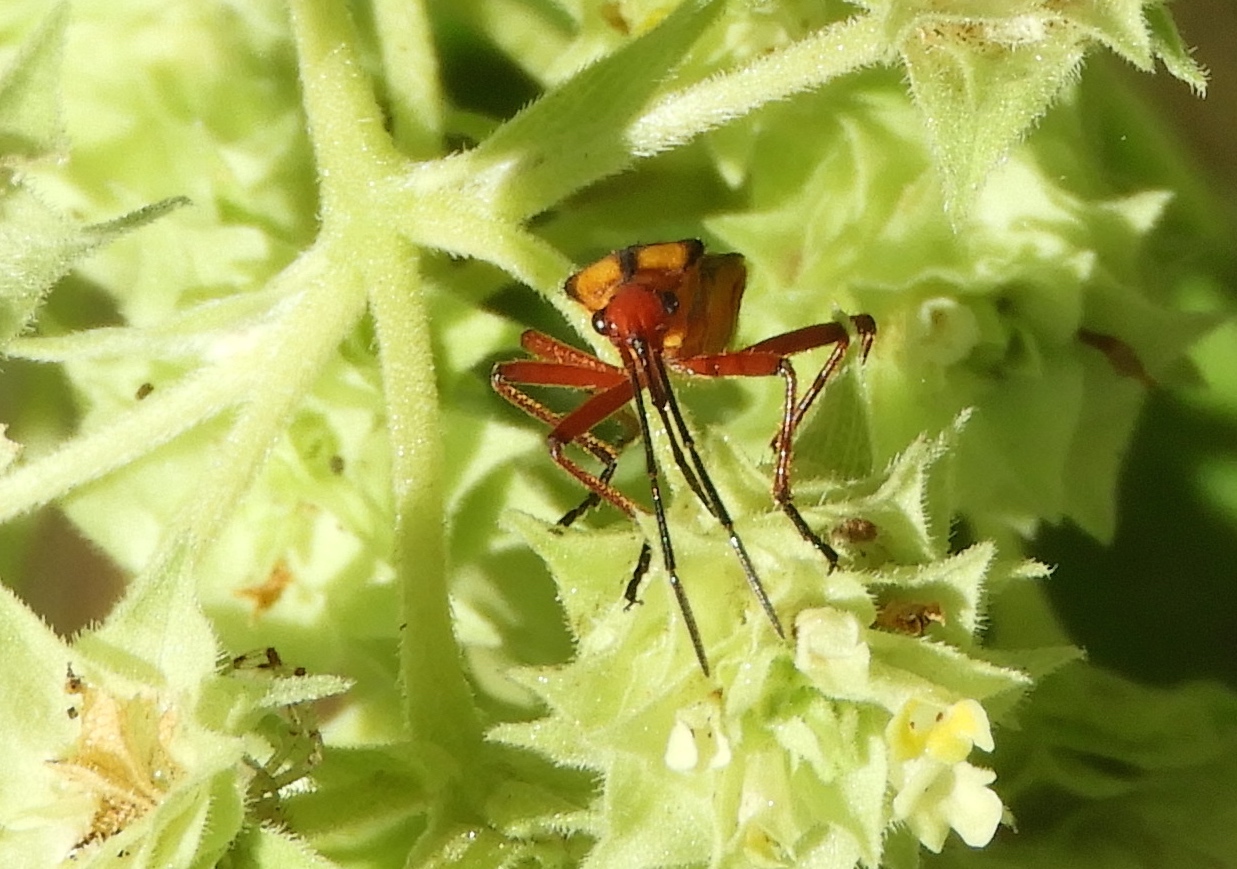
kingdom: Animalia
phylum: Arthropoda
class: Insecta
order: Hemiptera
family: Lygaeidae
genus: Oncopeltus
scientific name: Oncopeltus guttaloides
